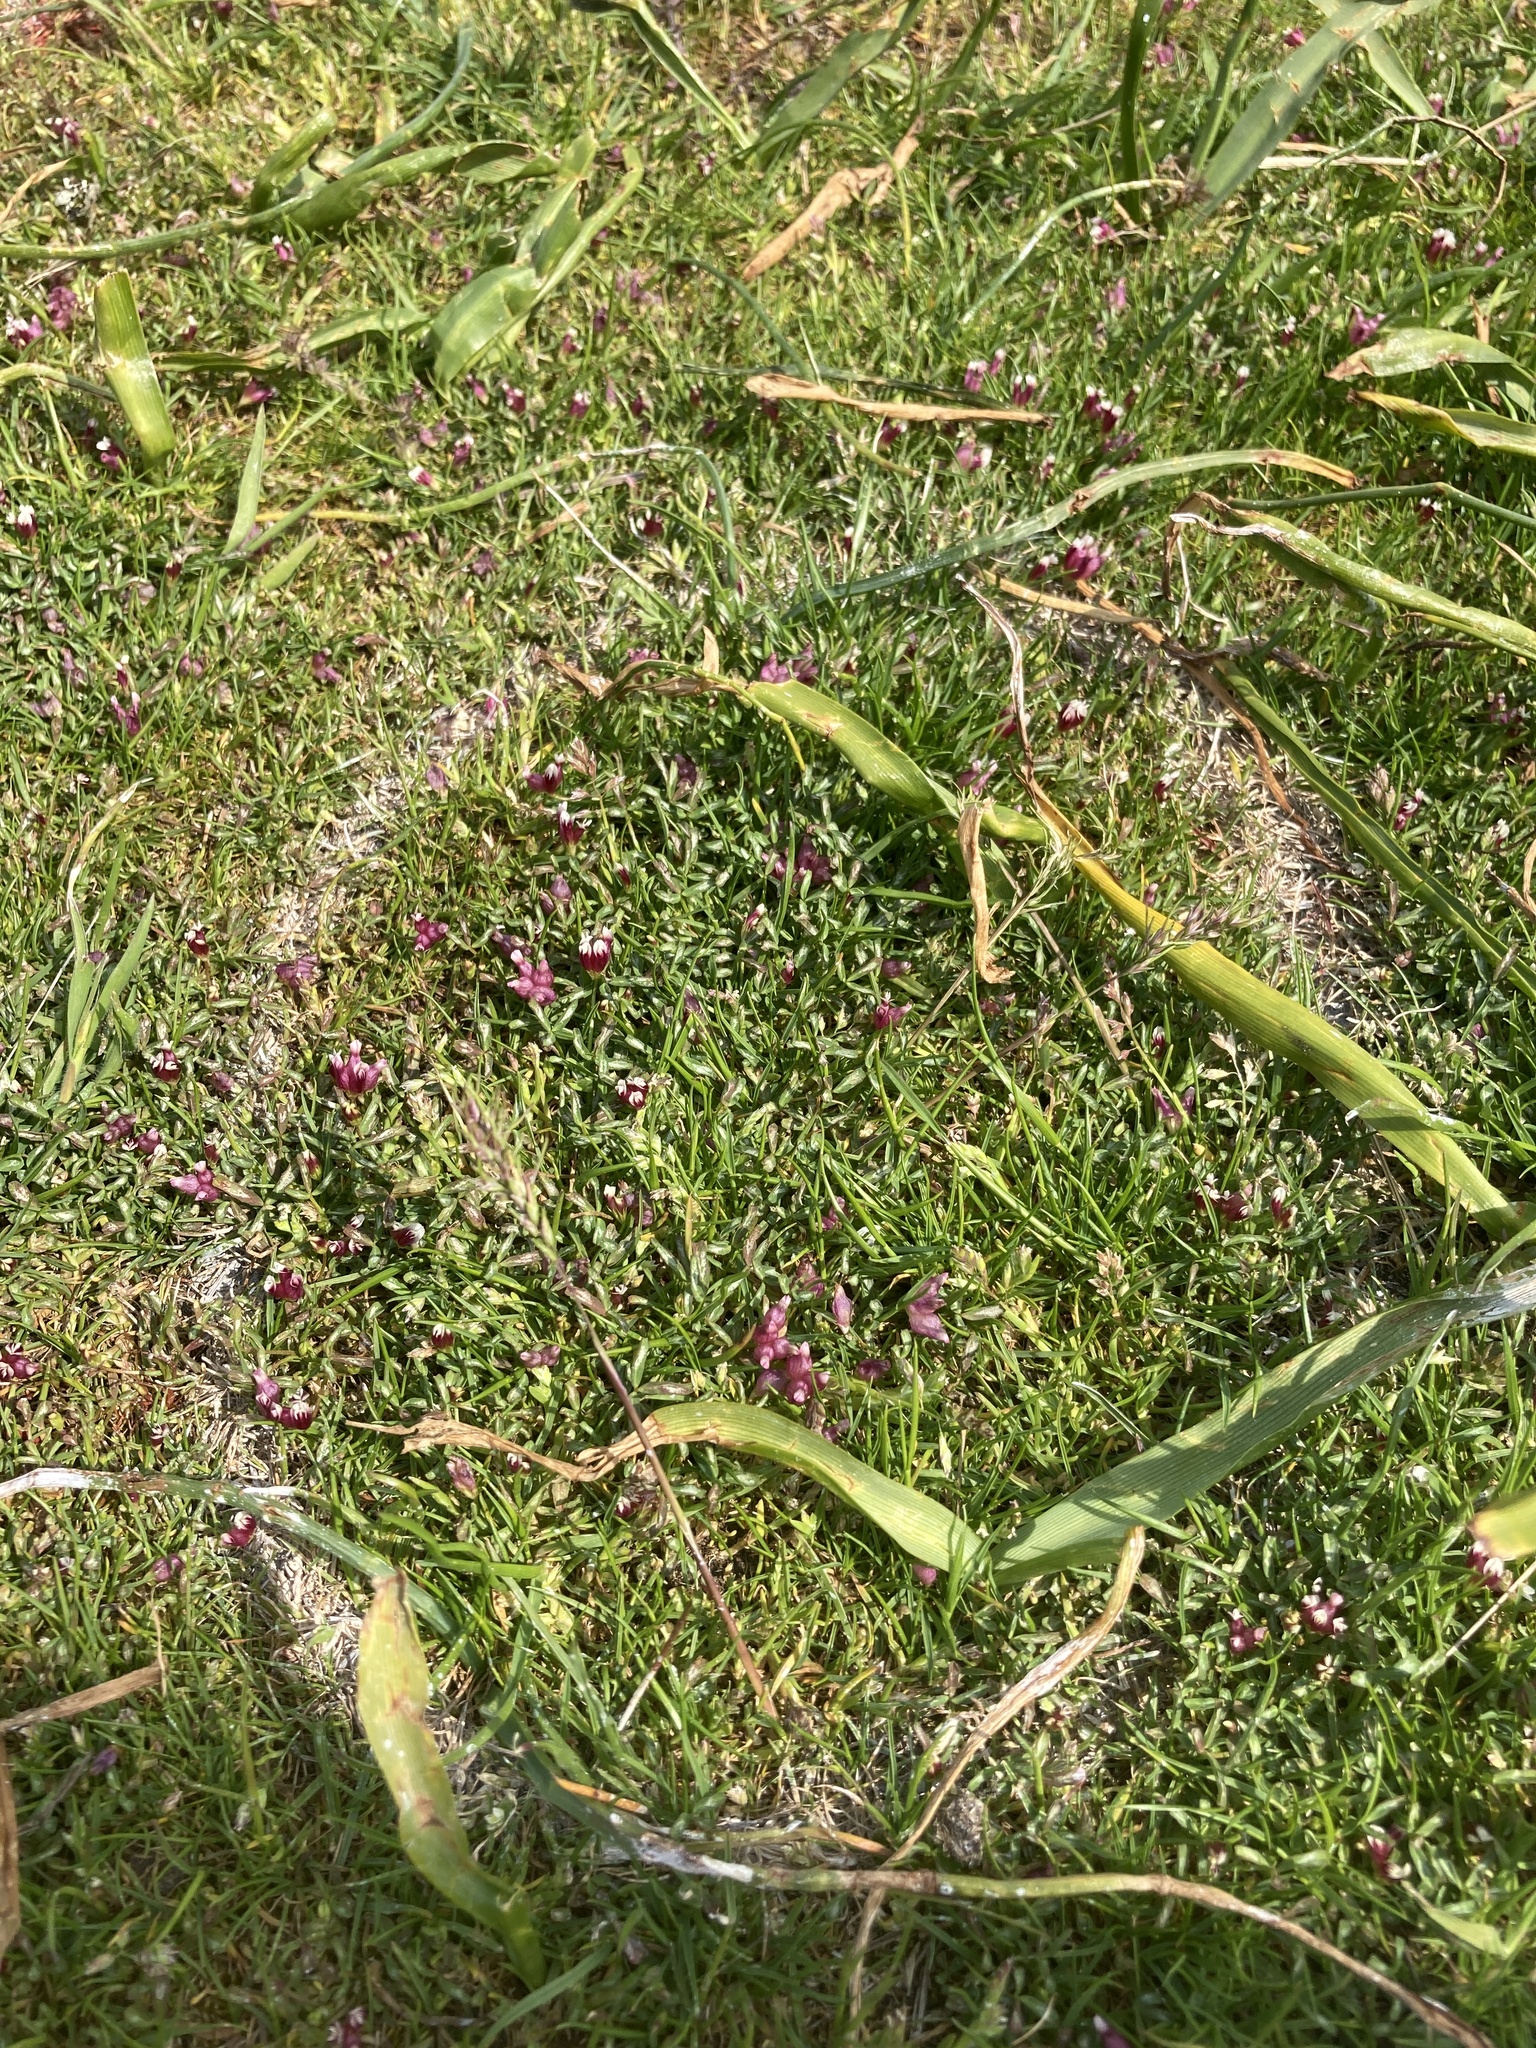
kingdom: Plantae
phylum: Tracheophyta
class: Magnoliopsida
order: Fabales
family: Fabaceae
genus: Trifolium
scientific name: Trifolium depauperatum
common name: Poverty clover
